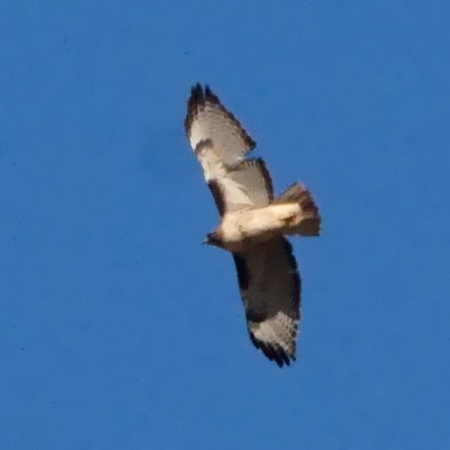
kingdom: Animalia
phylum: Chordata
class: Aves
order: Accipitriformes
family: Accipitridae
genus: Buteo
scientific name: Buteo jamaicensis
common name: Red-tailed hawk
